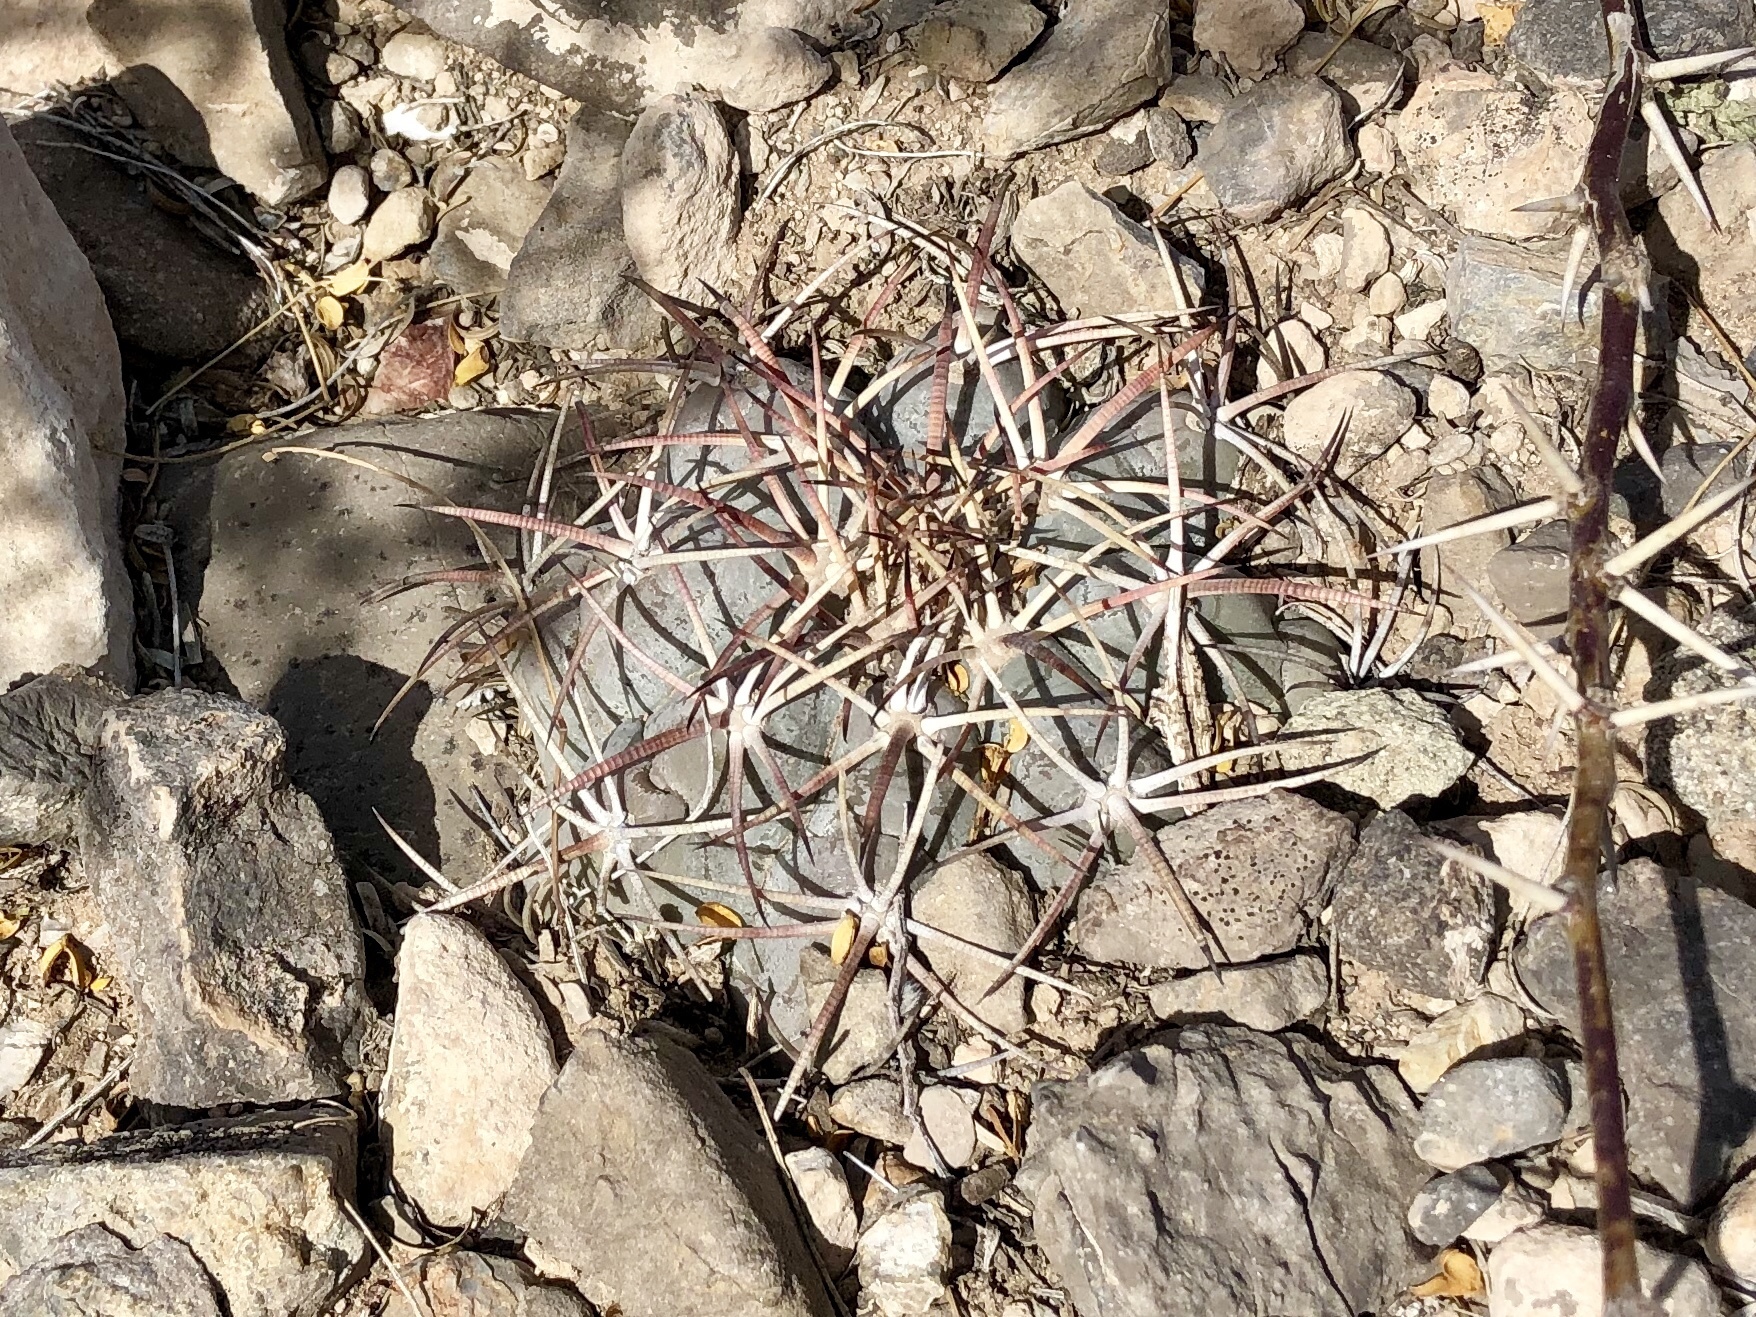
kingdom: Plantae
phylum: Tracheophyta
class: Magnoliopsida
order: Caryophyllales
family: Cactaceae
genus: Echinocactus
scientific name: Echinocactus horizonthalonius
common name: Devilshead
